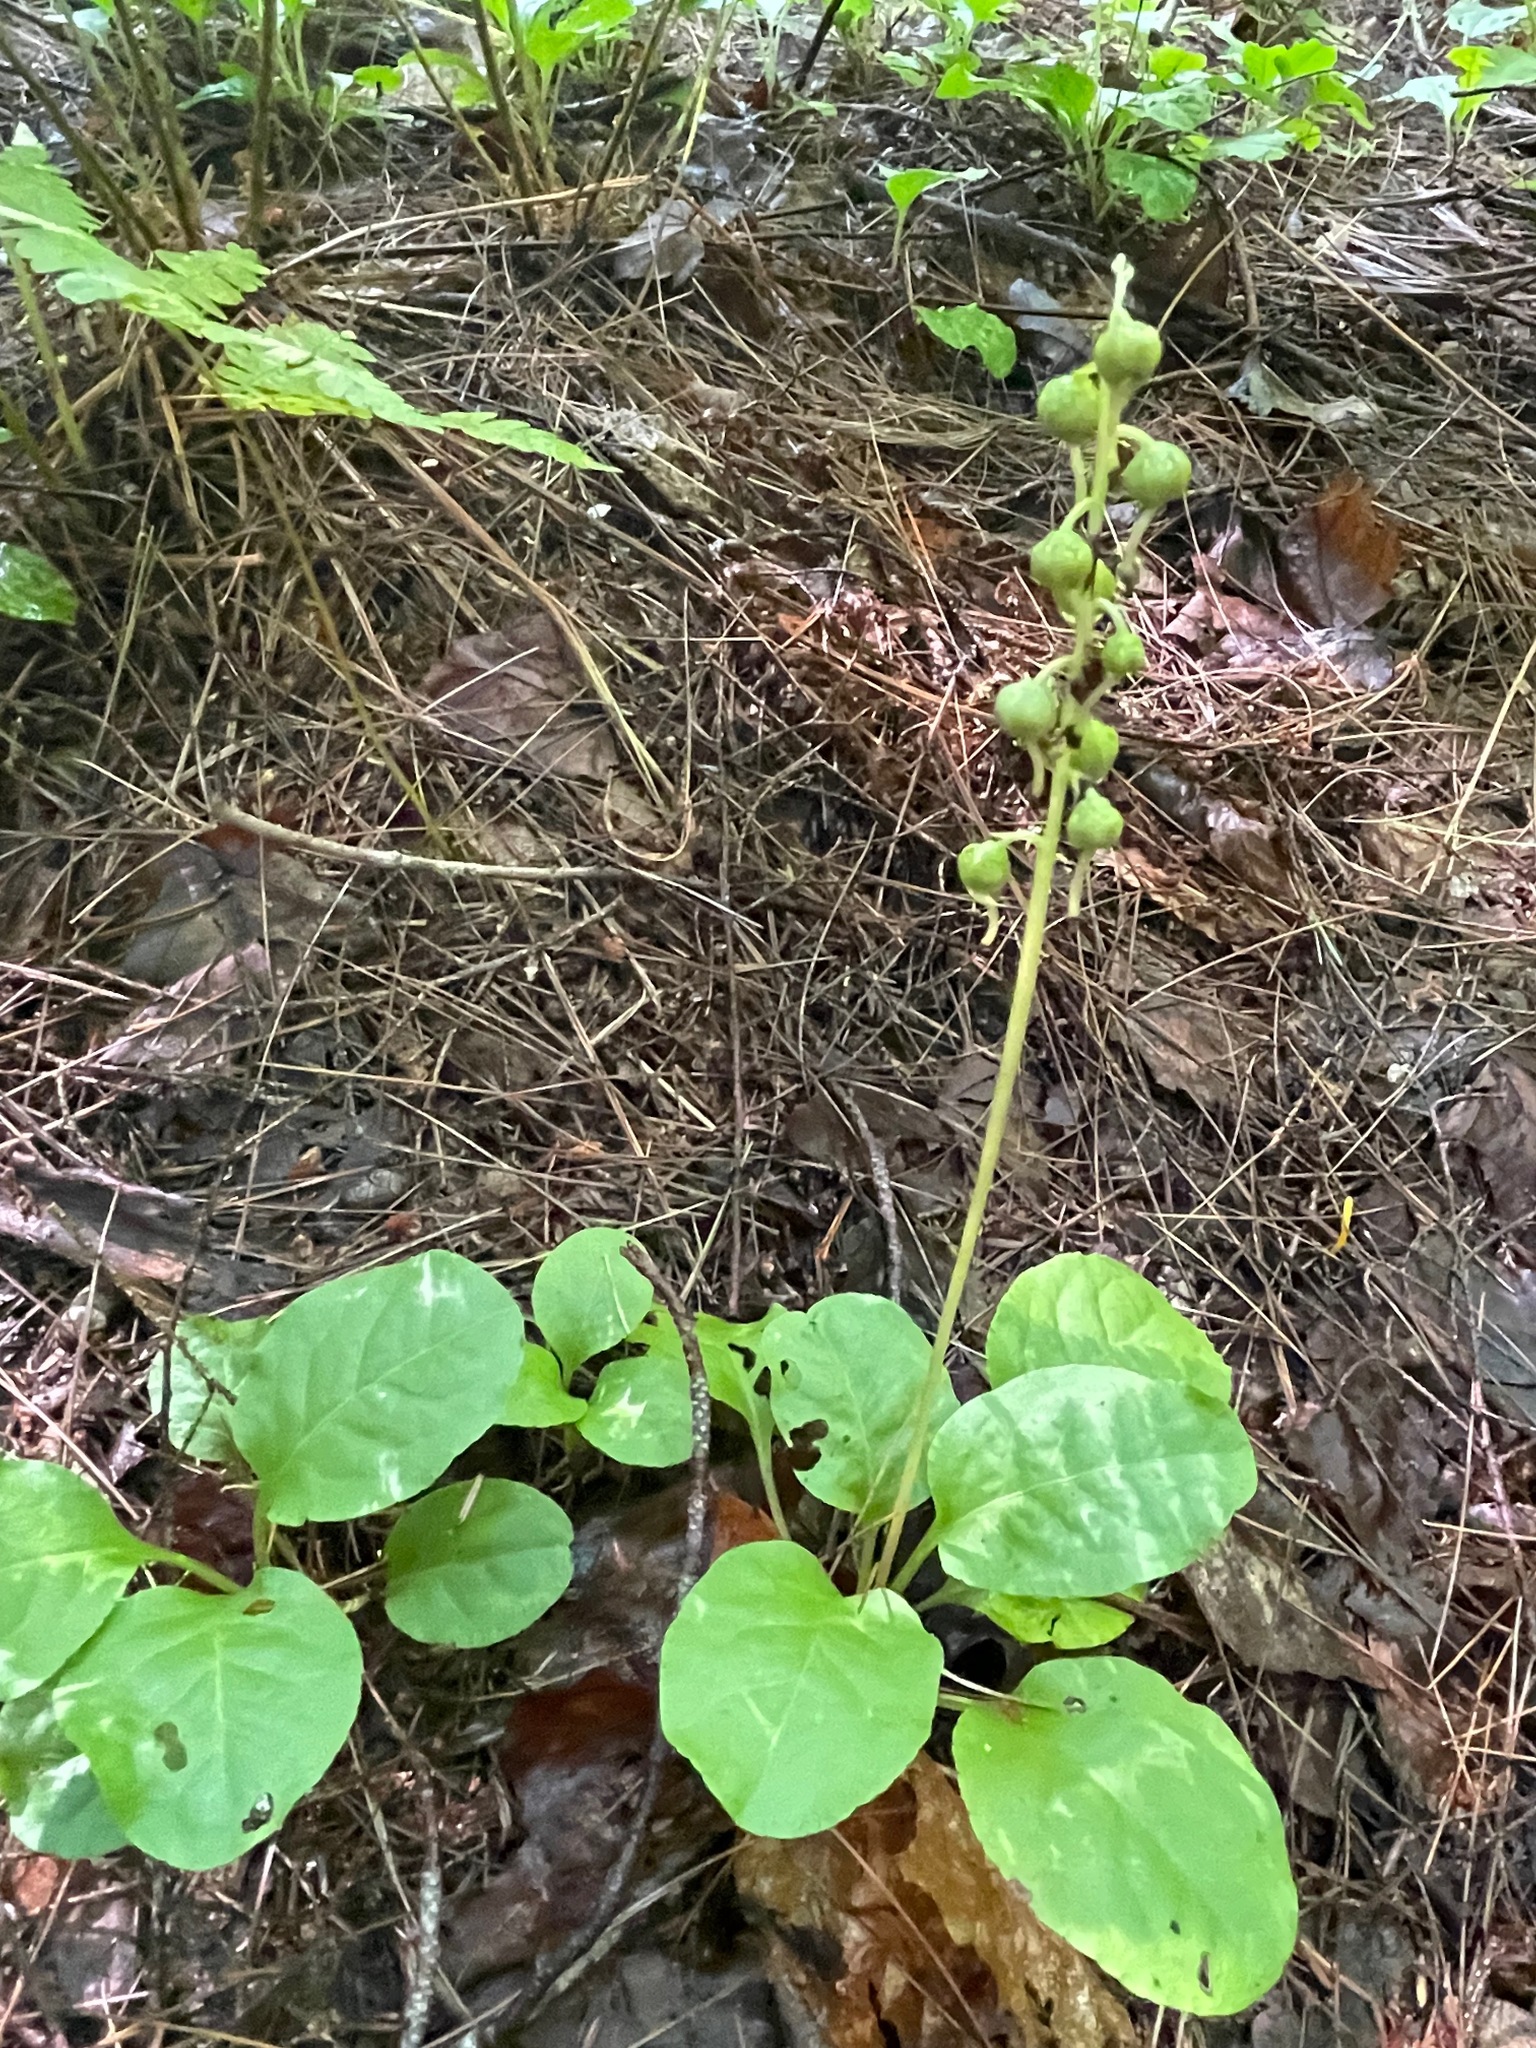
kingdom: Plantae
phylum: Tracheophyta
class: Magnoliopsida
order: Ericales
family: Ericaceae
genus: Pyrola
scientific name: Pyrola elliptica
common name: Shinleaf
